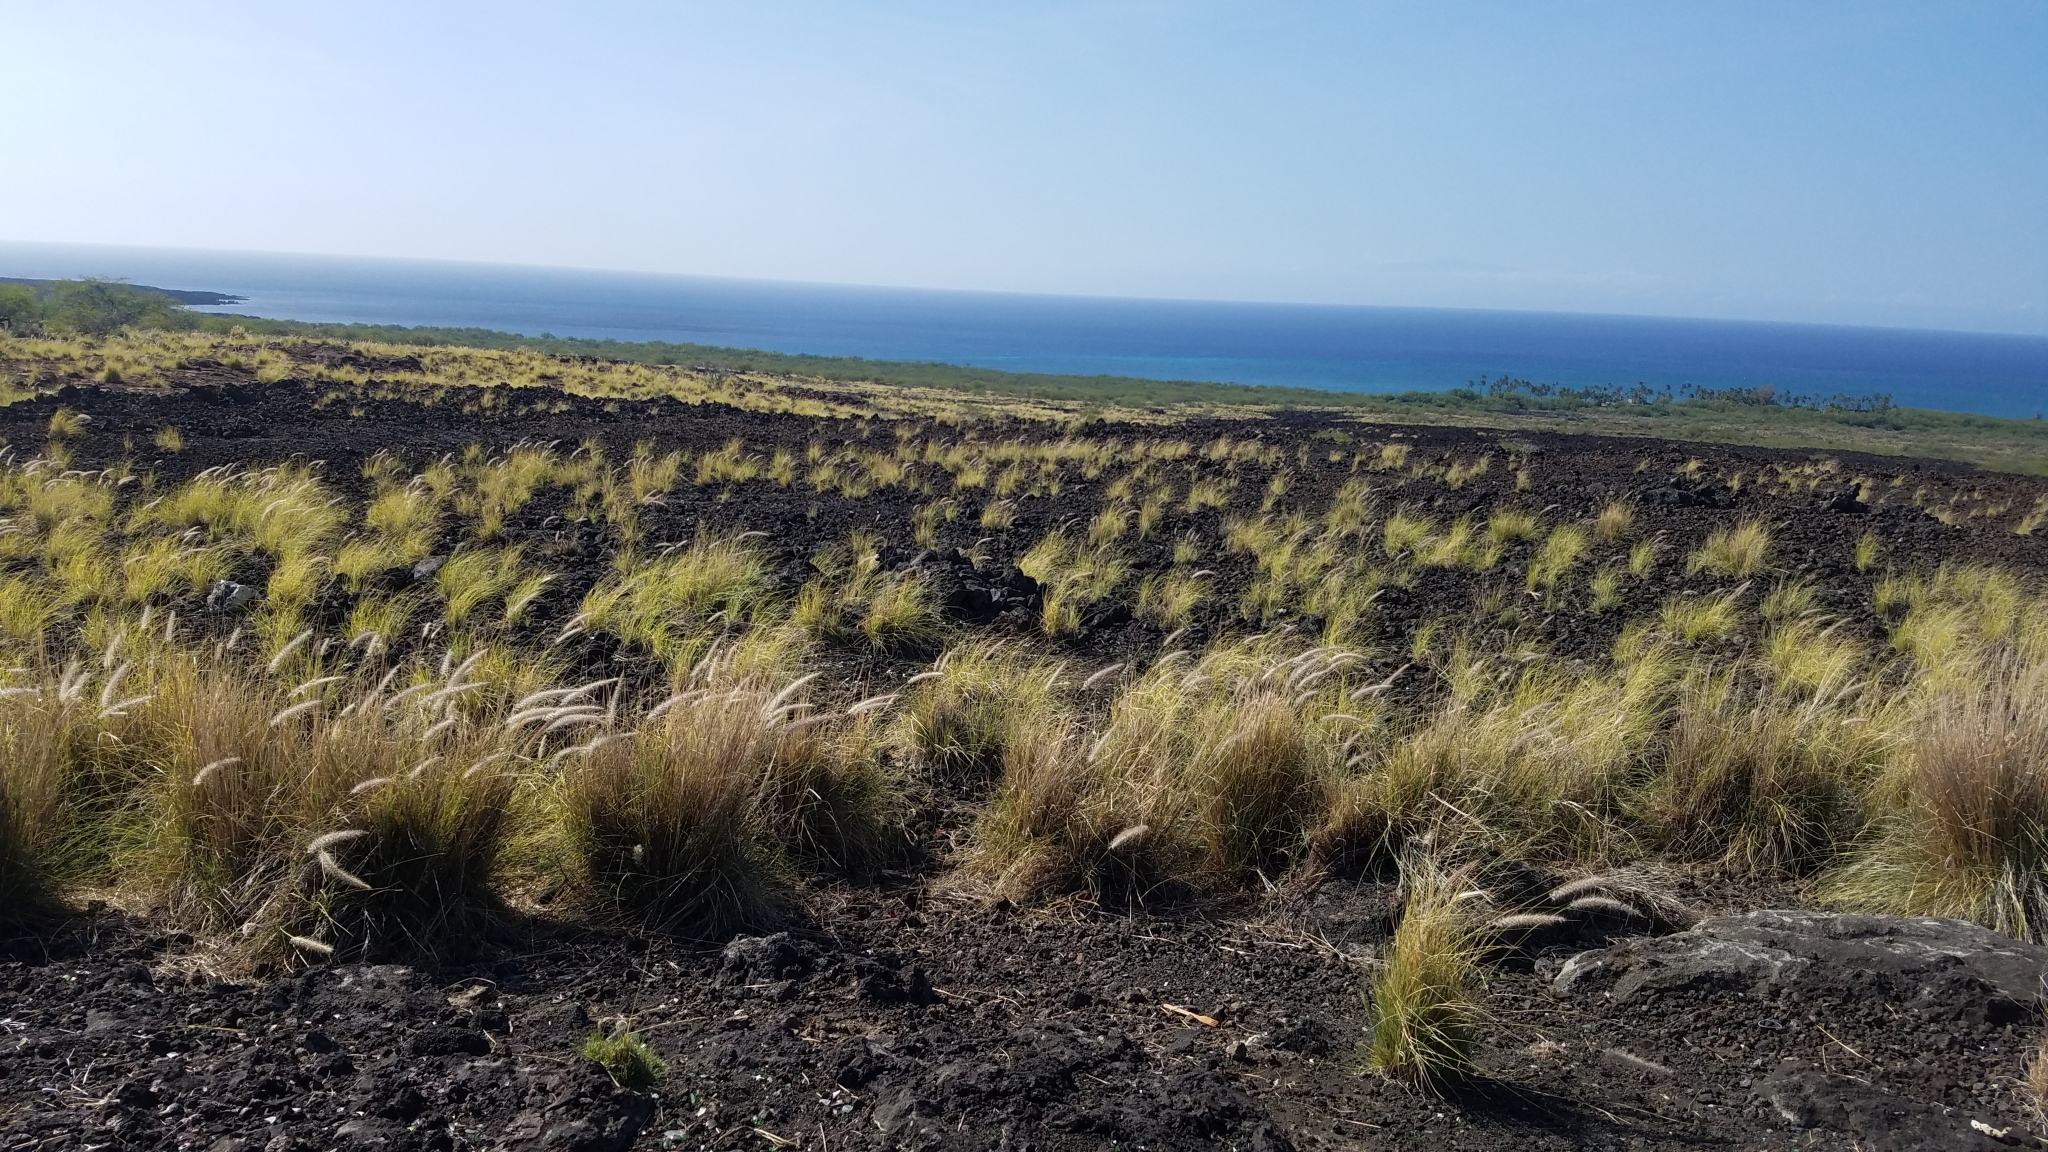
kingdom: Plantae
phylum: Tracheophyta
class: Liliopsida
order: Poales
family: Poaceae
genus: Cenchrus
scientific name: Cenchrus setaceus
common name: Crimson fountaingrass
